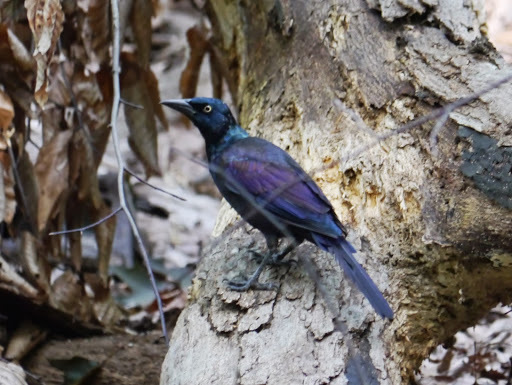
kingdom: Animalia
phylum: Chordata
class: Aves
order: Passeriformes
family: Icteridae
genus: Quiscalus
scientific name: Quiscalus quiscula
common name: Common grackle
